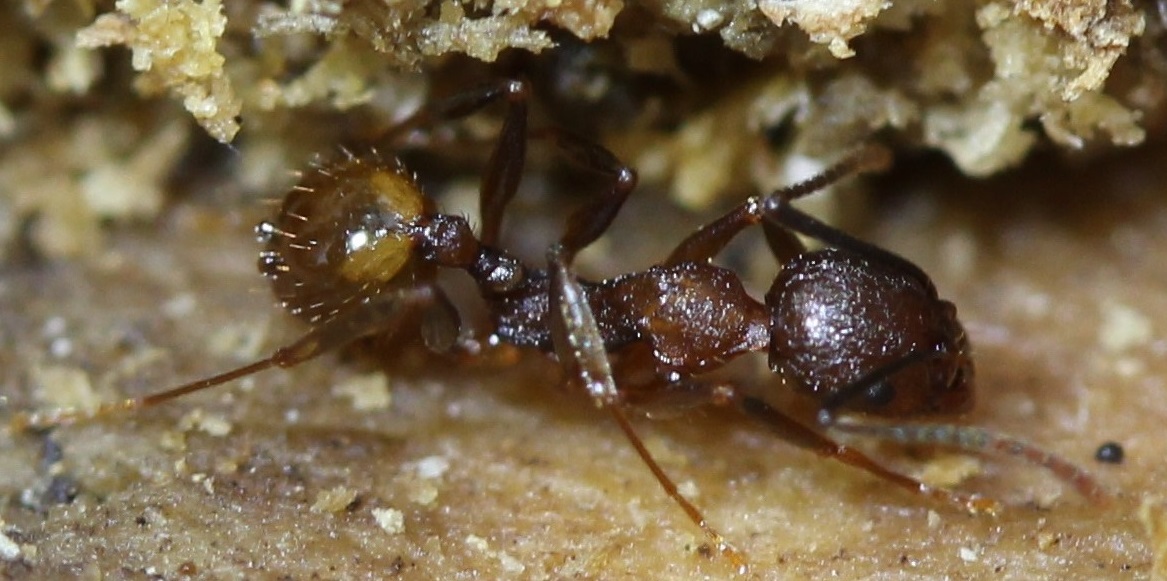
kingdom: Animalia
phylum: Arthropoda
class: Insecta
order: Hymenoptera
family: Formicidae
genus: Aphaenogaster
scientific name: Aphaenogaster fulva
